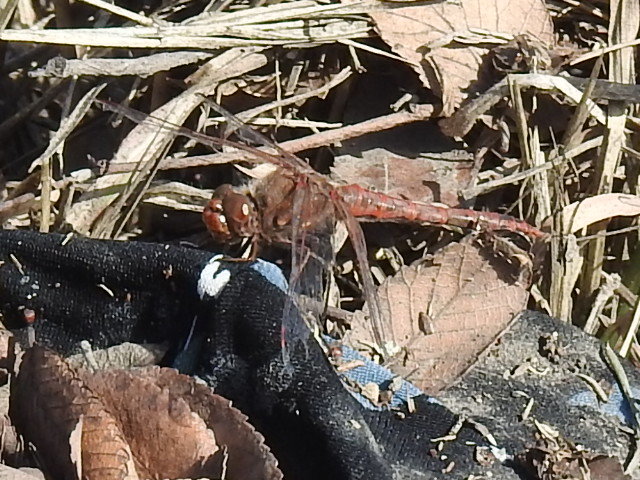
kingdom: Animalia
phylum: Arthropoda
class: Insecta
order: Odonata
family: Libellulidae
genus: Sympetrum
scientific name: Sympetrum corruptum
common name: Variegated meadowhawk
